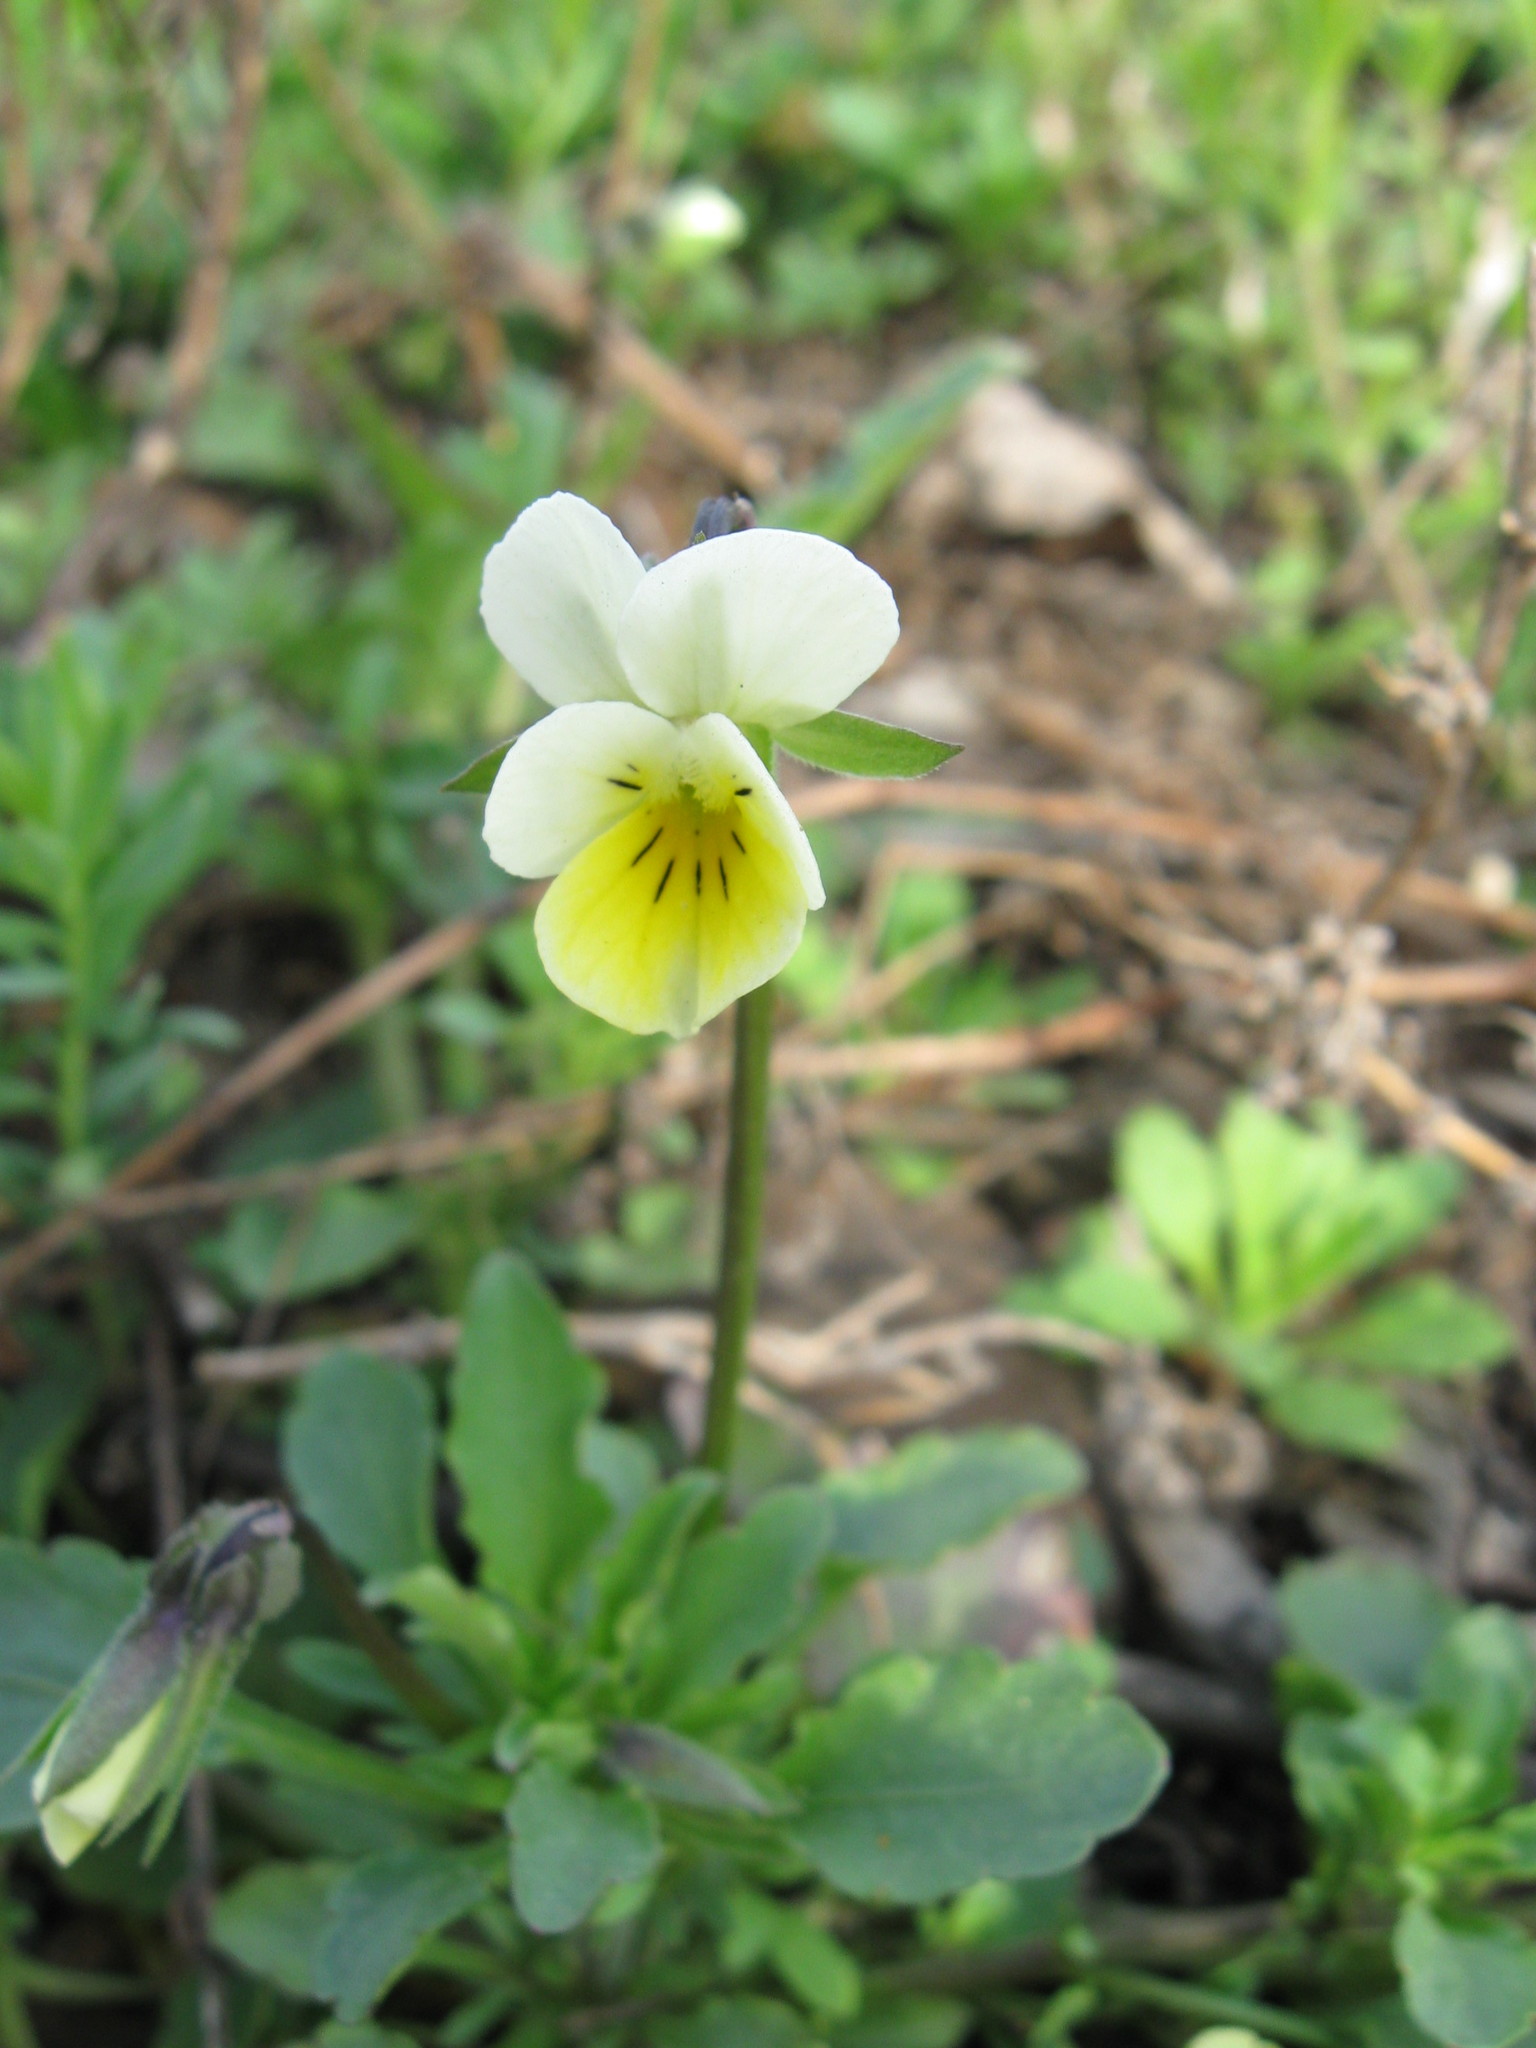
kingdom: Plantae
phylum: Tracheophyta
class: Magnoliopsida
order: Malpighiales
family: Violaceae
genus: Viola
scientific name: Viola arvensis
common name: Field pansy
